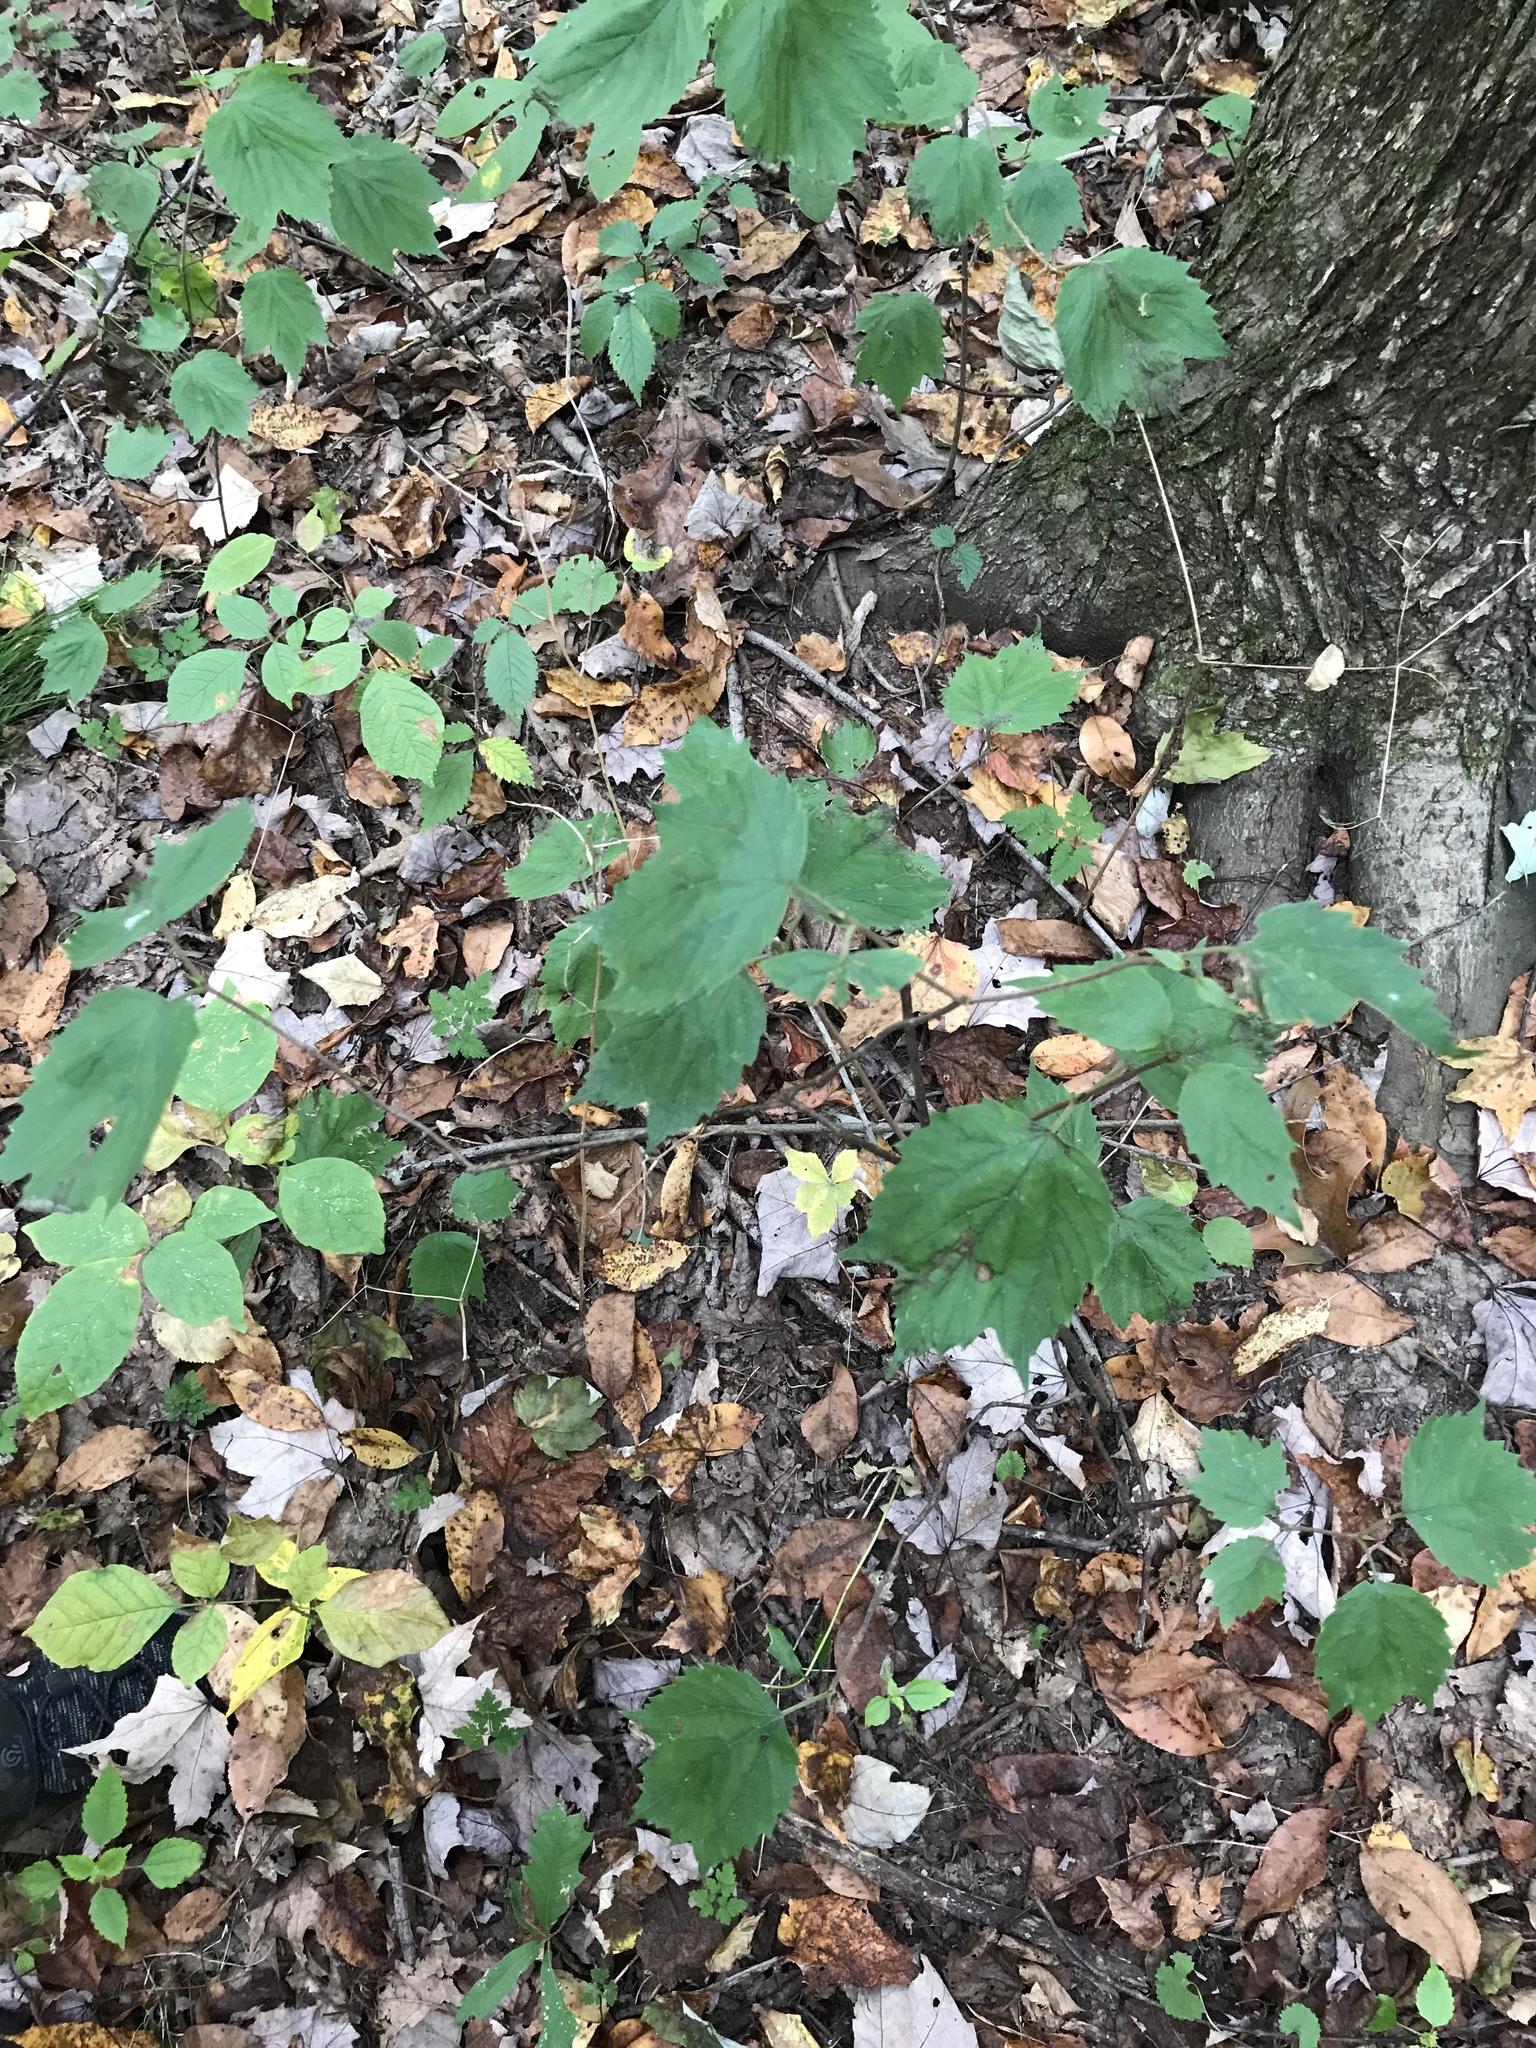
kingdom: Plantae
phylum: Tracheophyta
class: Magnoliopsida
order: Dipsacales
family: Viburnaceae
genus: Viburnum
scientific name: Viburnum acerifolium
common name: Dockmackie
